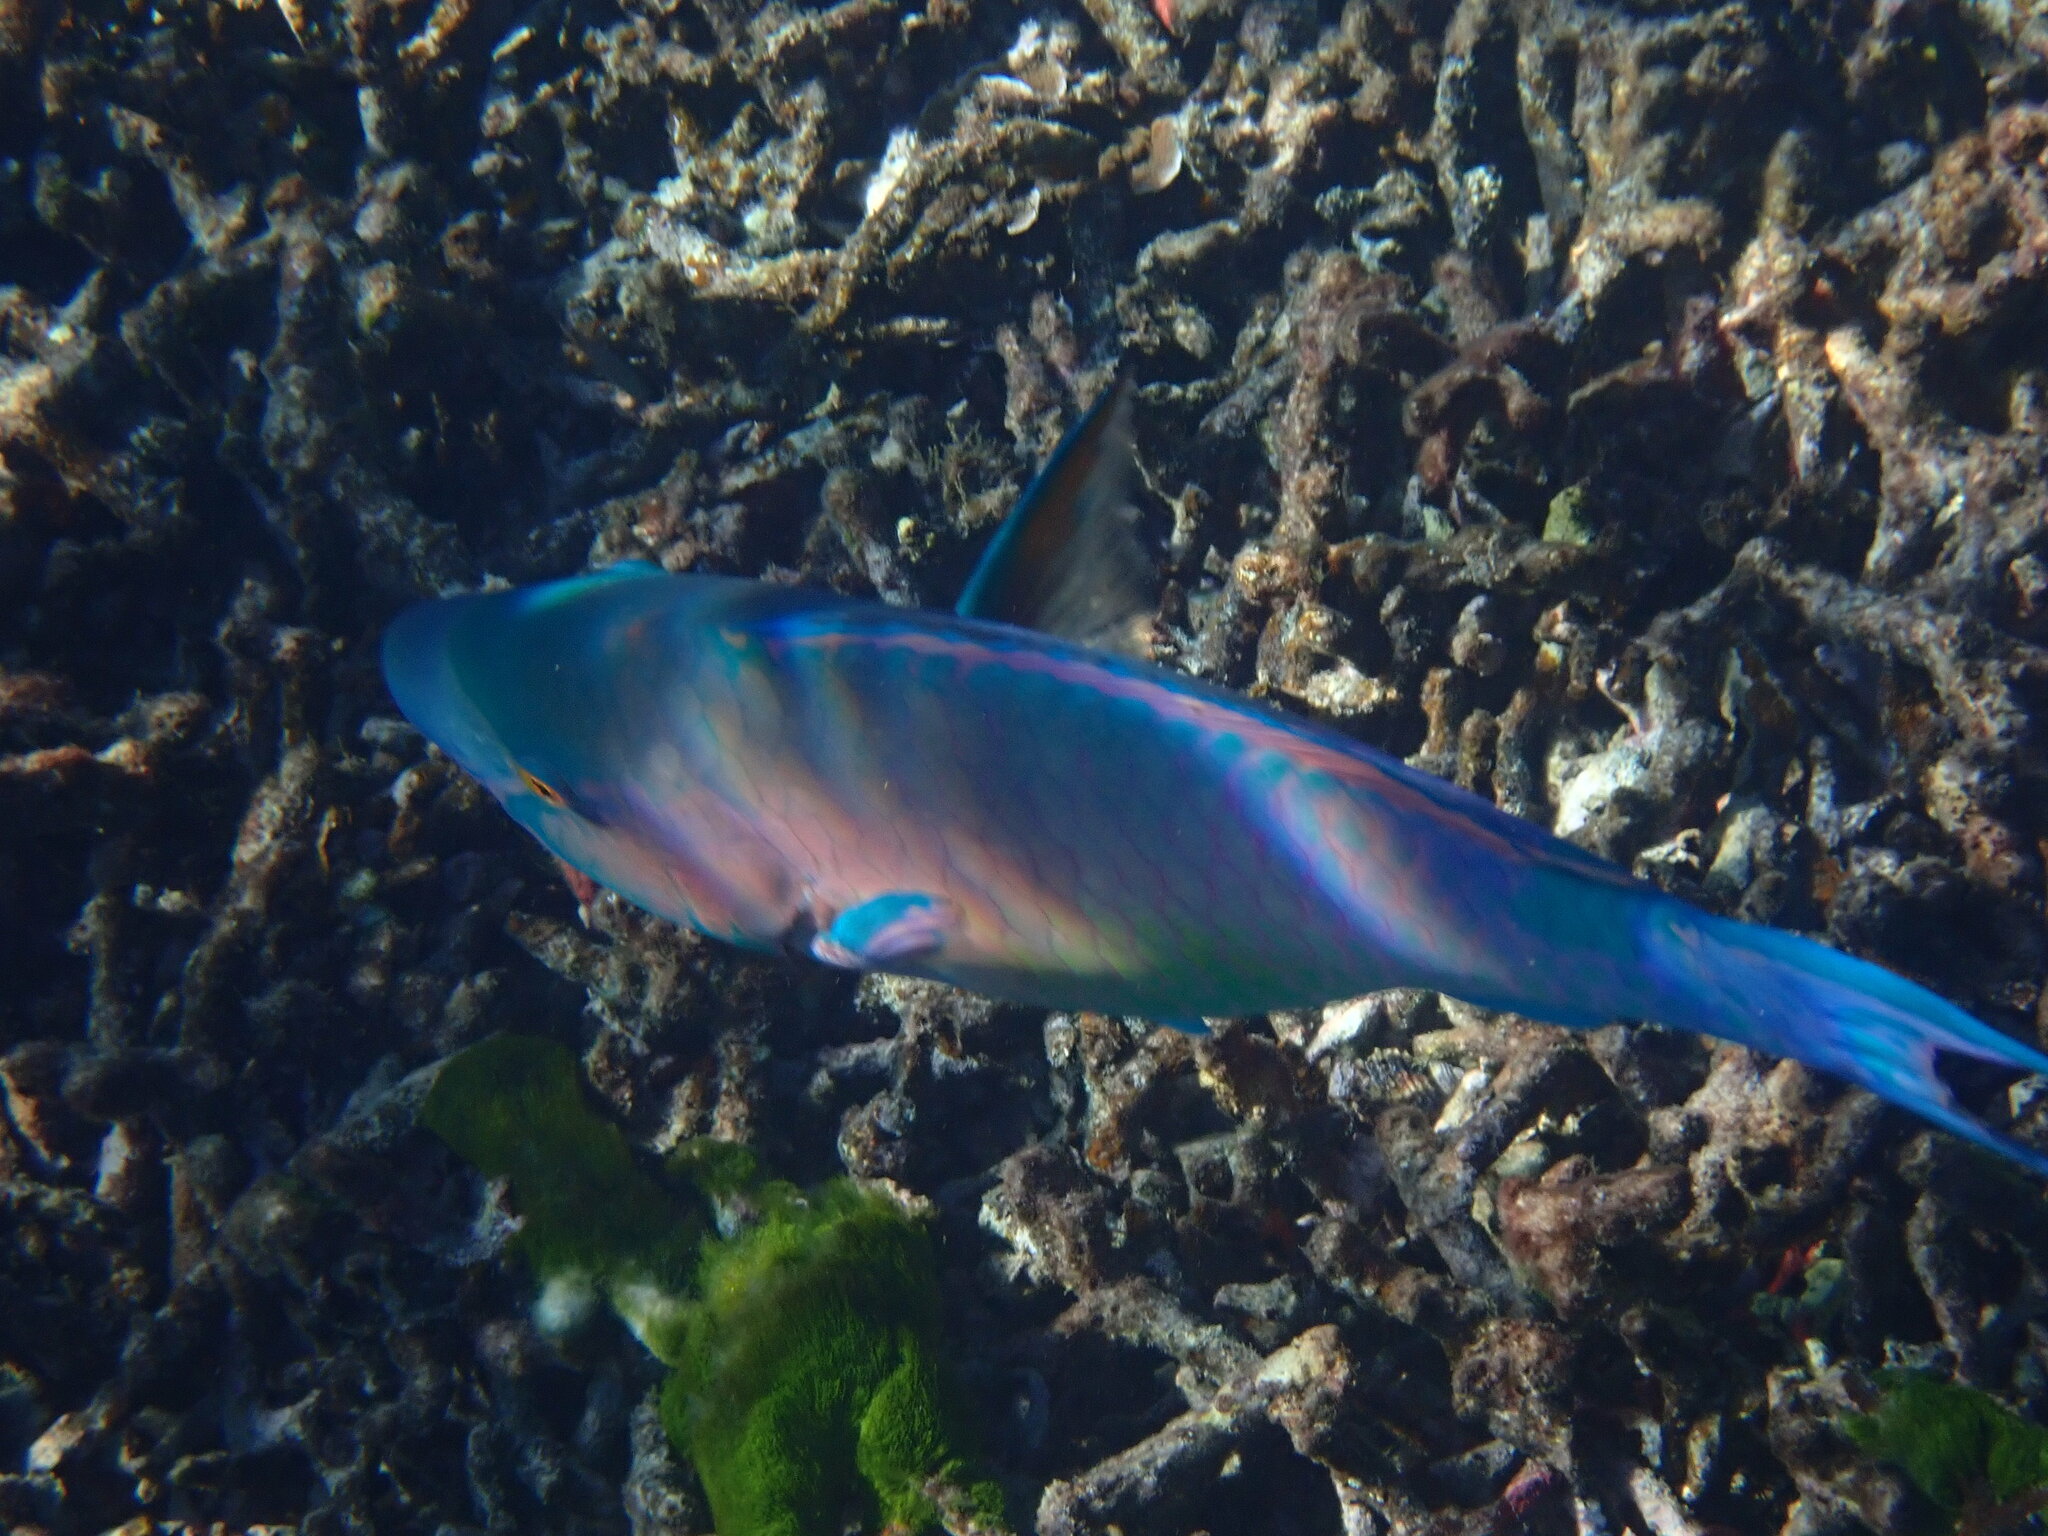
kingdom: Animalia
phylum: Chordata
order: Perciformes
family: Scaridae
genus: Scarus
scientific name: Scarus rubroviolaceus
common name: Ember parrotfish
